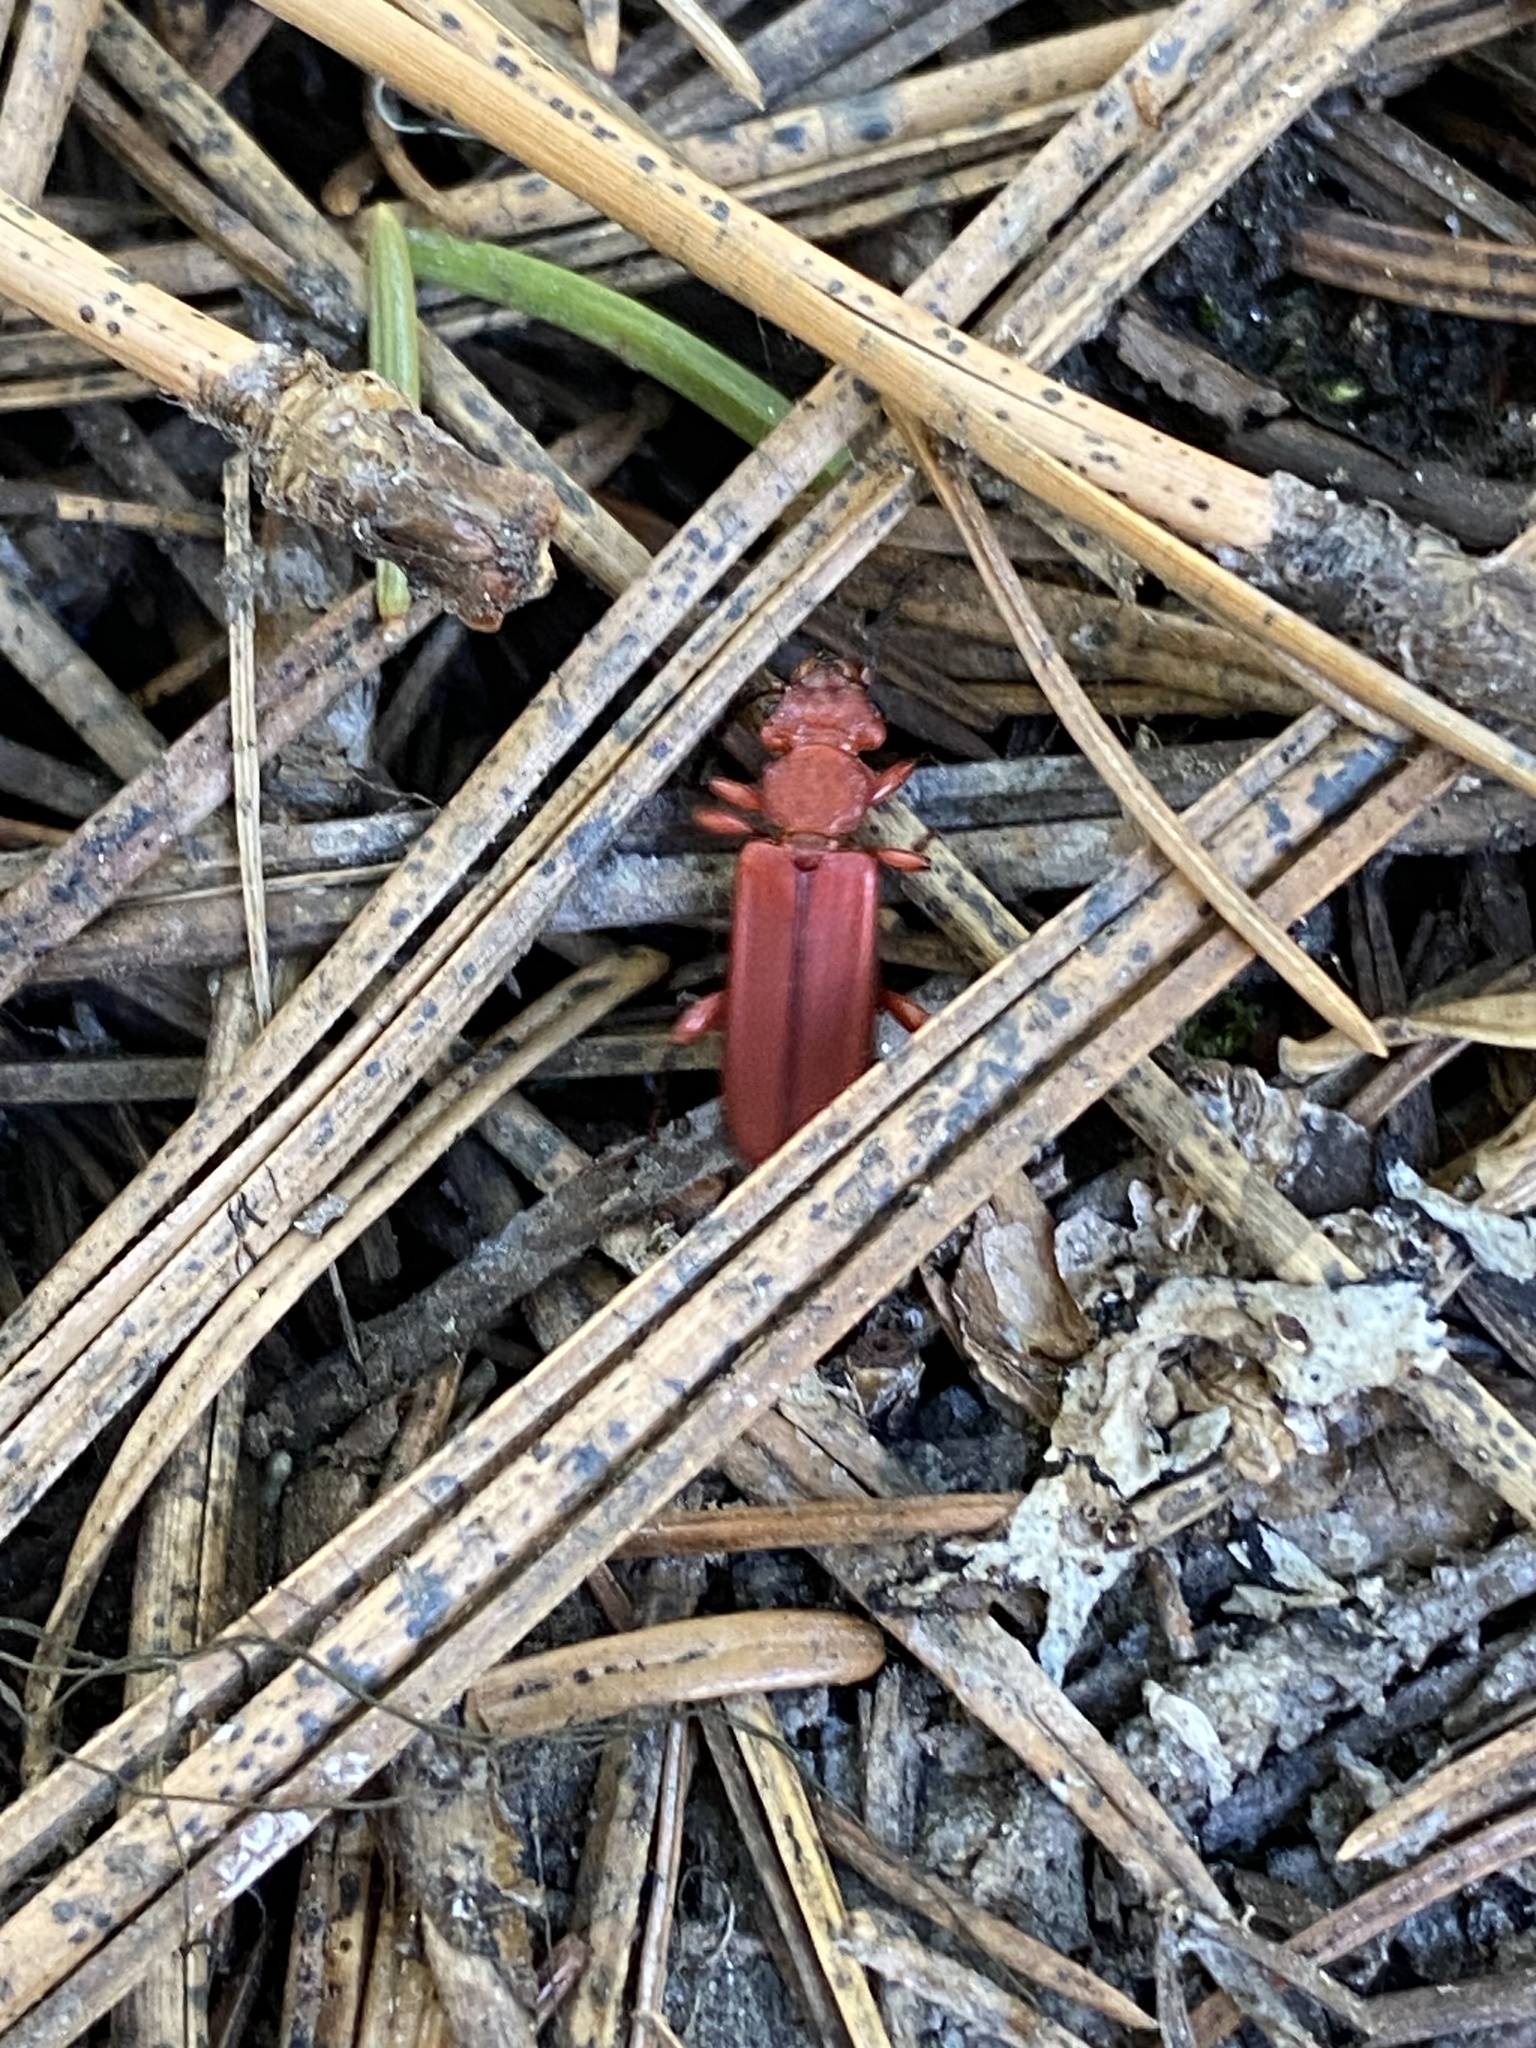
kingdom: Animalia
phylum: Arthropoda
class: Insecta
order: Coleoptera
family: Cucujidae
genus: Cucujus
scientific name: Cucujus clavipes
